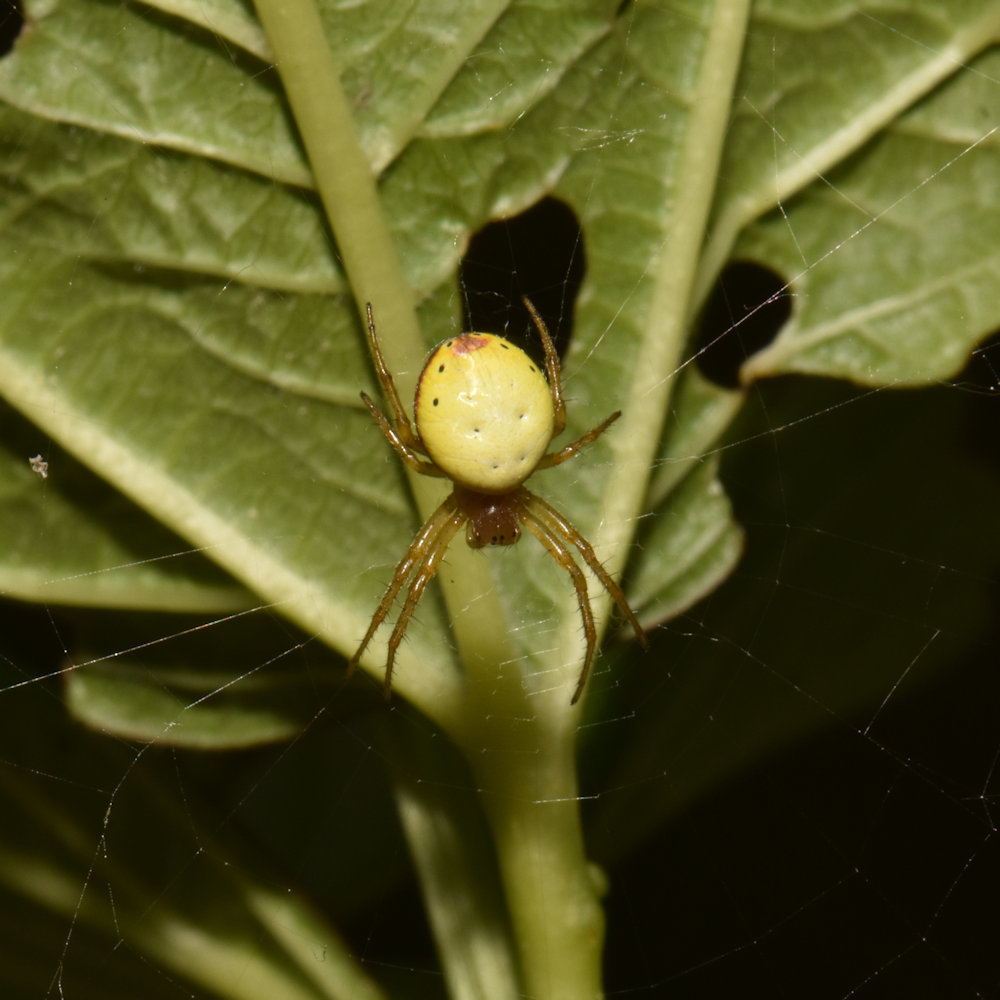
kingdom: Animalia
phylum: Arthropoda
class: Arachnida
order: Araneae
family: Araneidae
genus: Araniella
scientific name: Araniella displicata
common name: Sixspotted orb weaver
